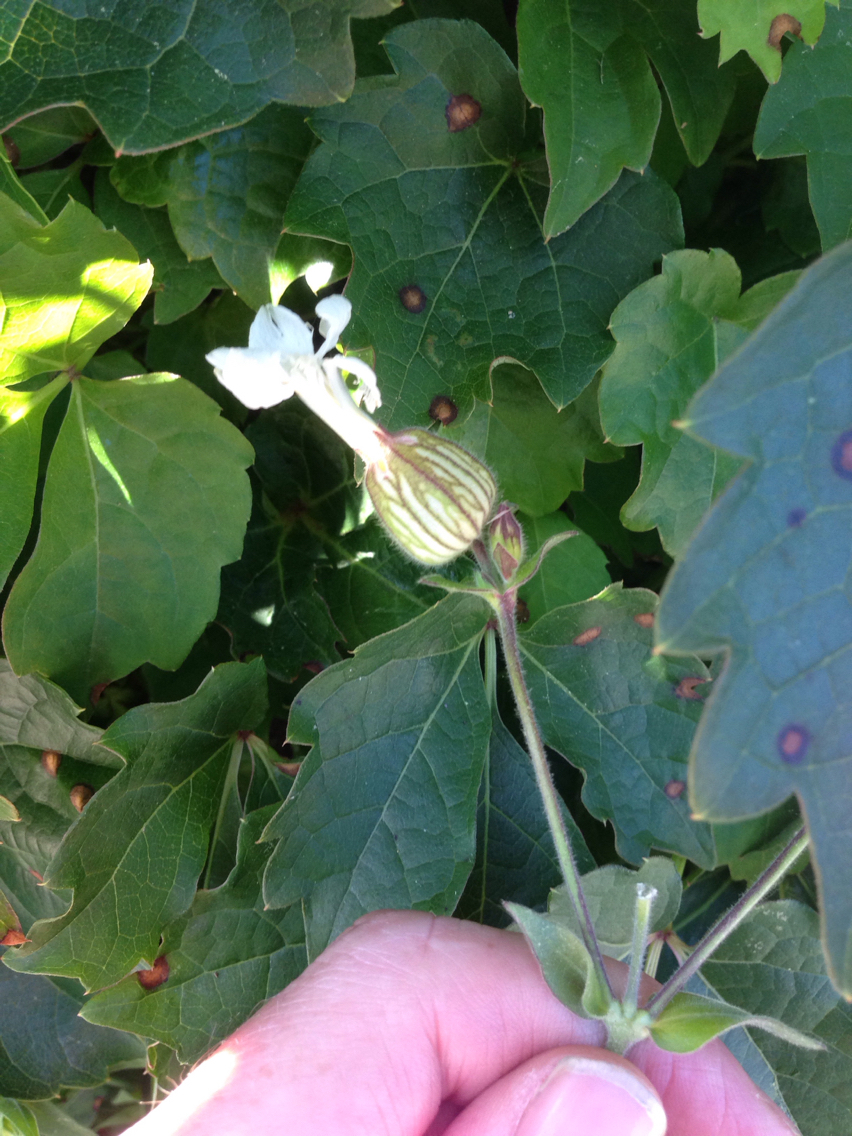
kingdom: Plantae
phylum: Tracheophyta
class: Magnoliopsida
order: Caryophyllales
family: Caryophyllaceae
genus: Silene
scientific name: Silene latifolia
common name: White campion
